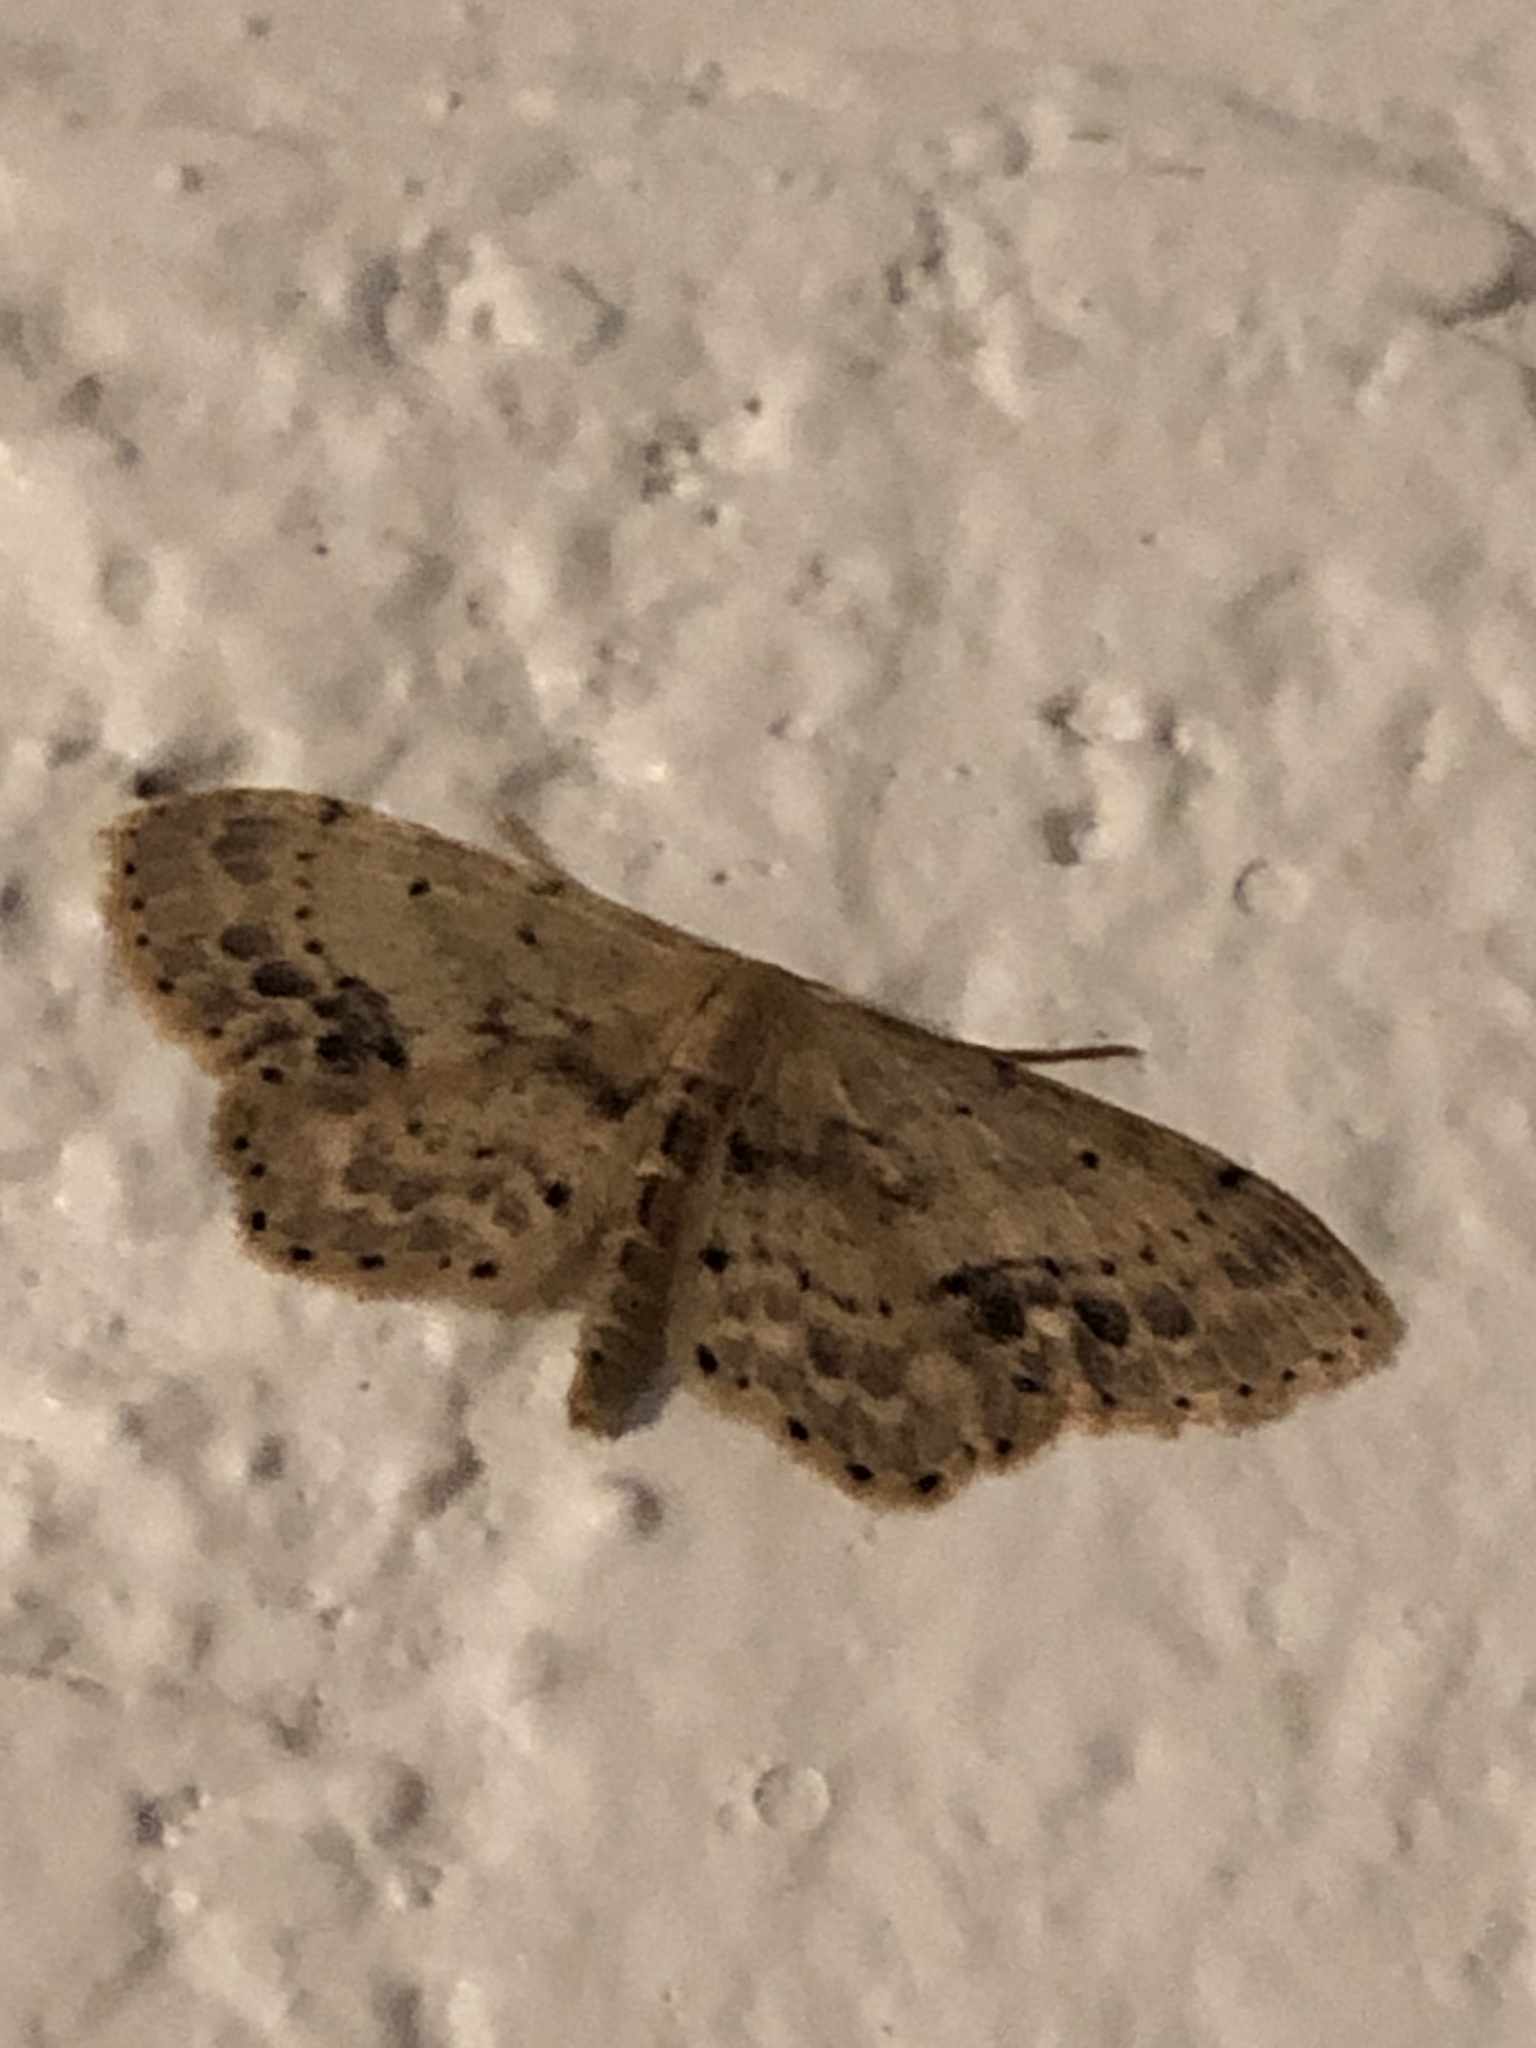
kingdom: Animalia
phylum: Arthropoda
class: Insecta
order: Lepidoptera
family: Geometridae
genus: Idaea
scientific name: Idaea dimidiata
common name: Single-dotted wave
